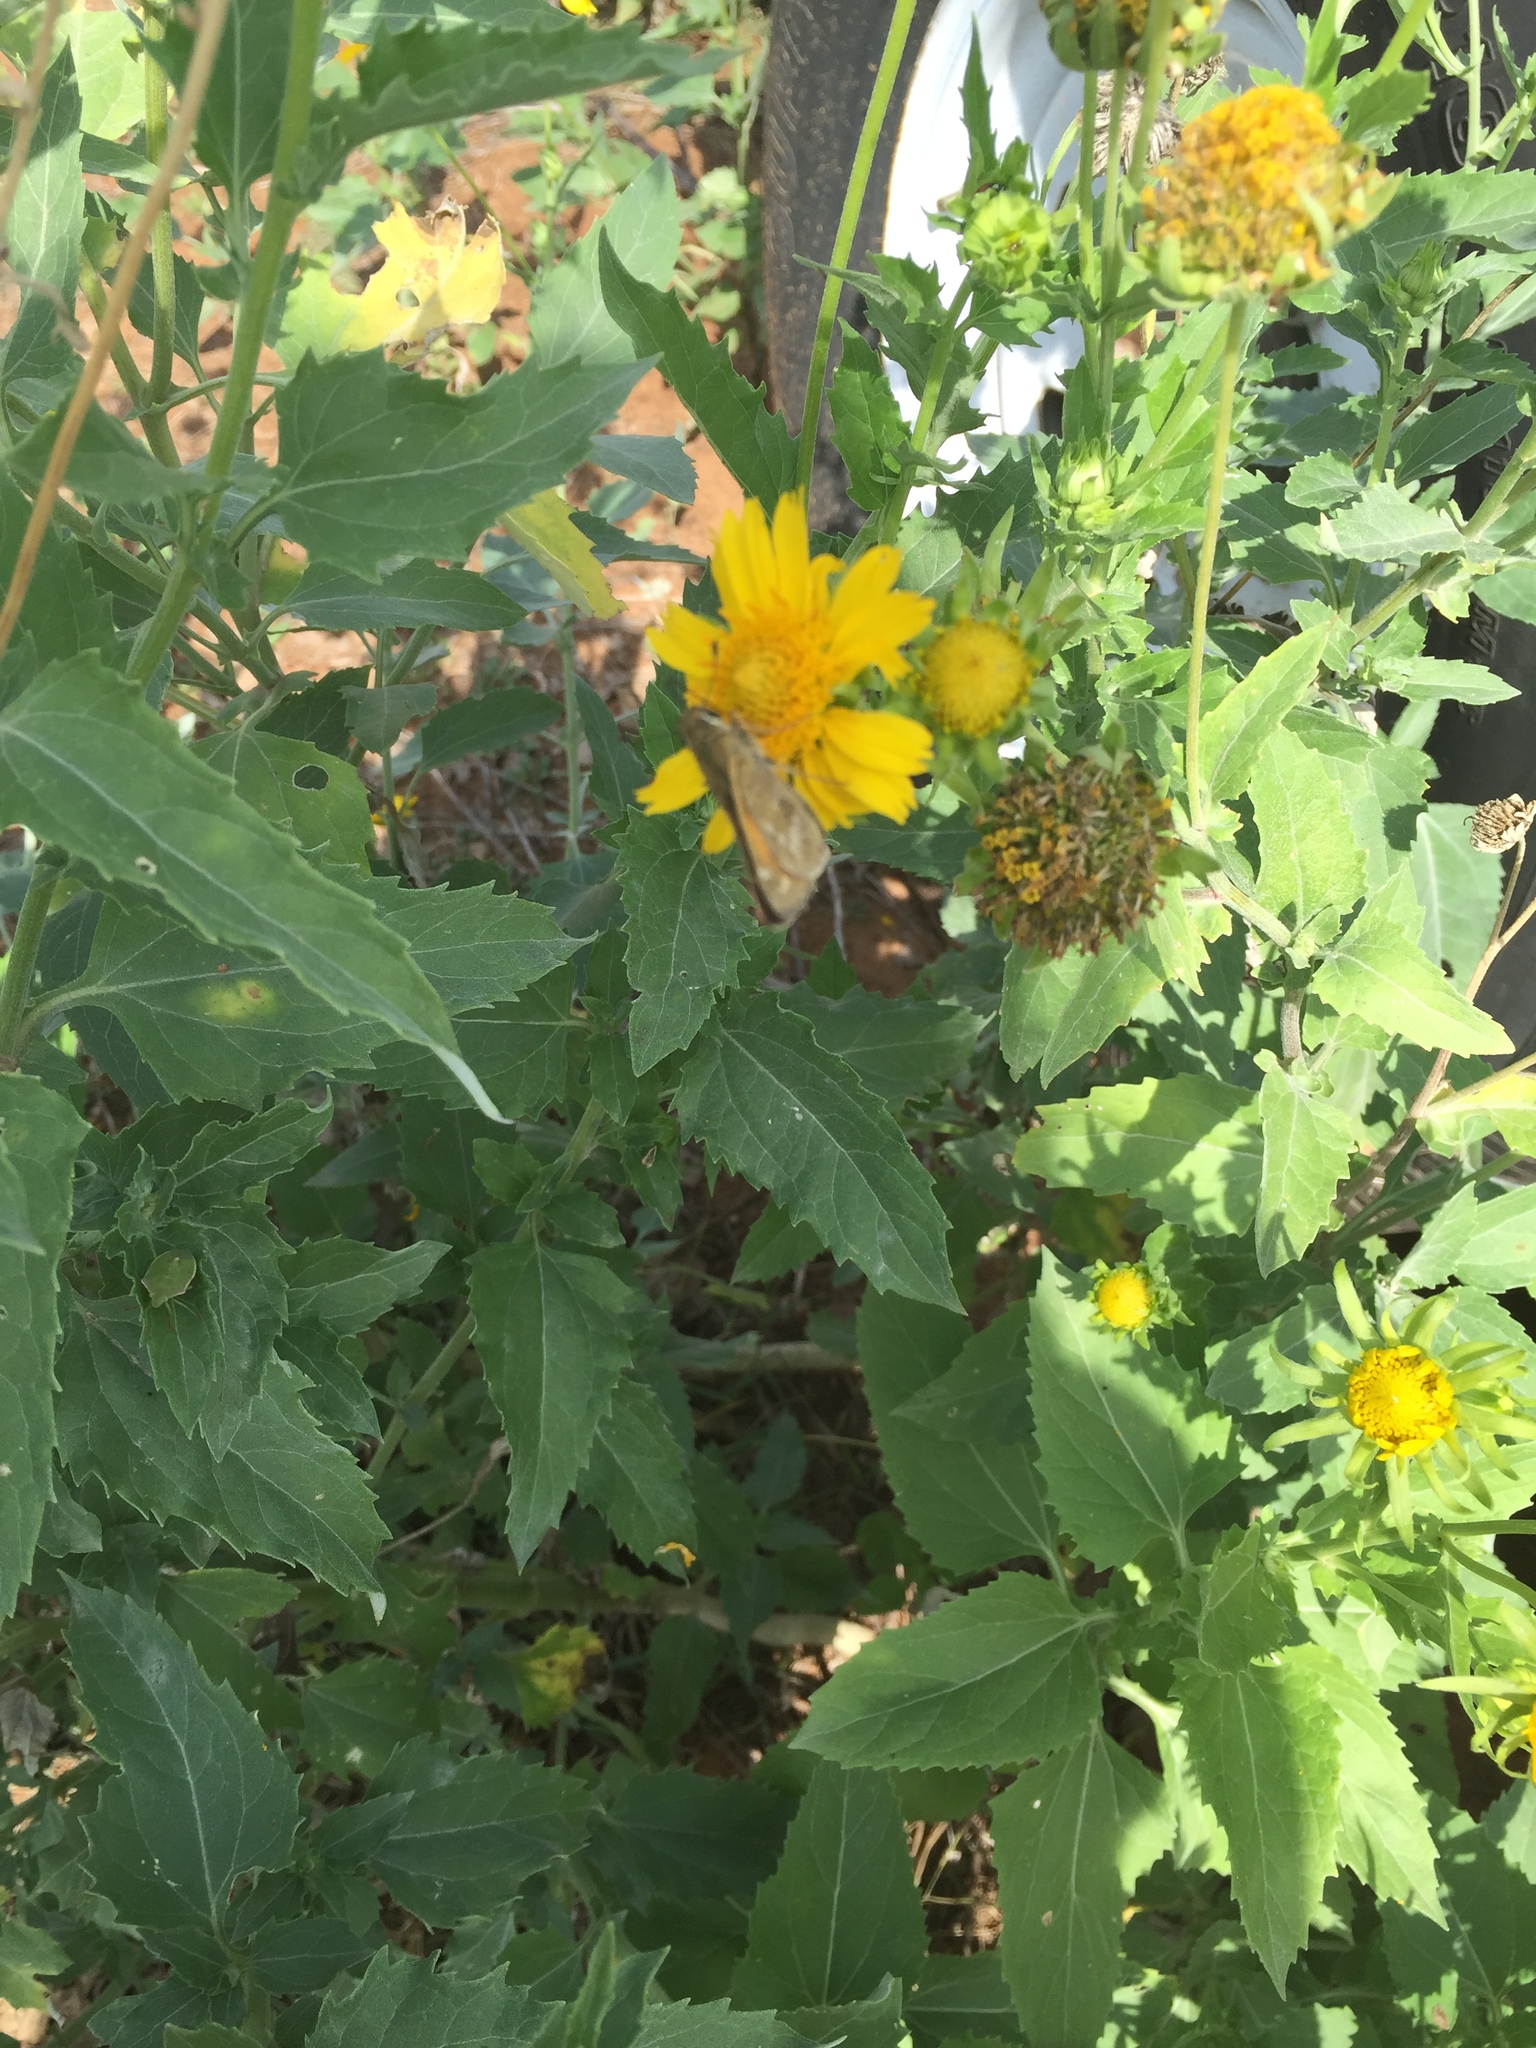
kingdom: Animalia
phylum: Arthropoda
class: Insecta
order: Lepidoptera
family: Hesperiidae
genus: Atalopedes
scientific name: Atalopedes
